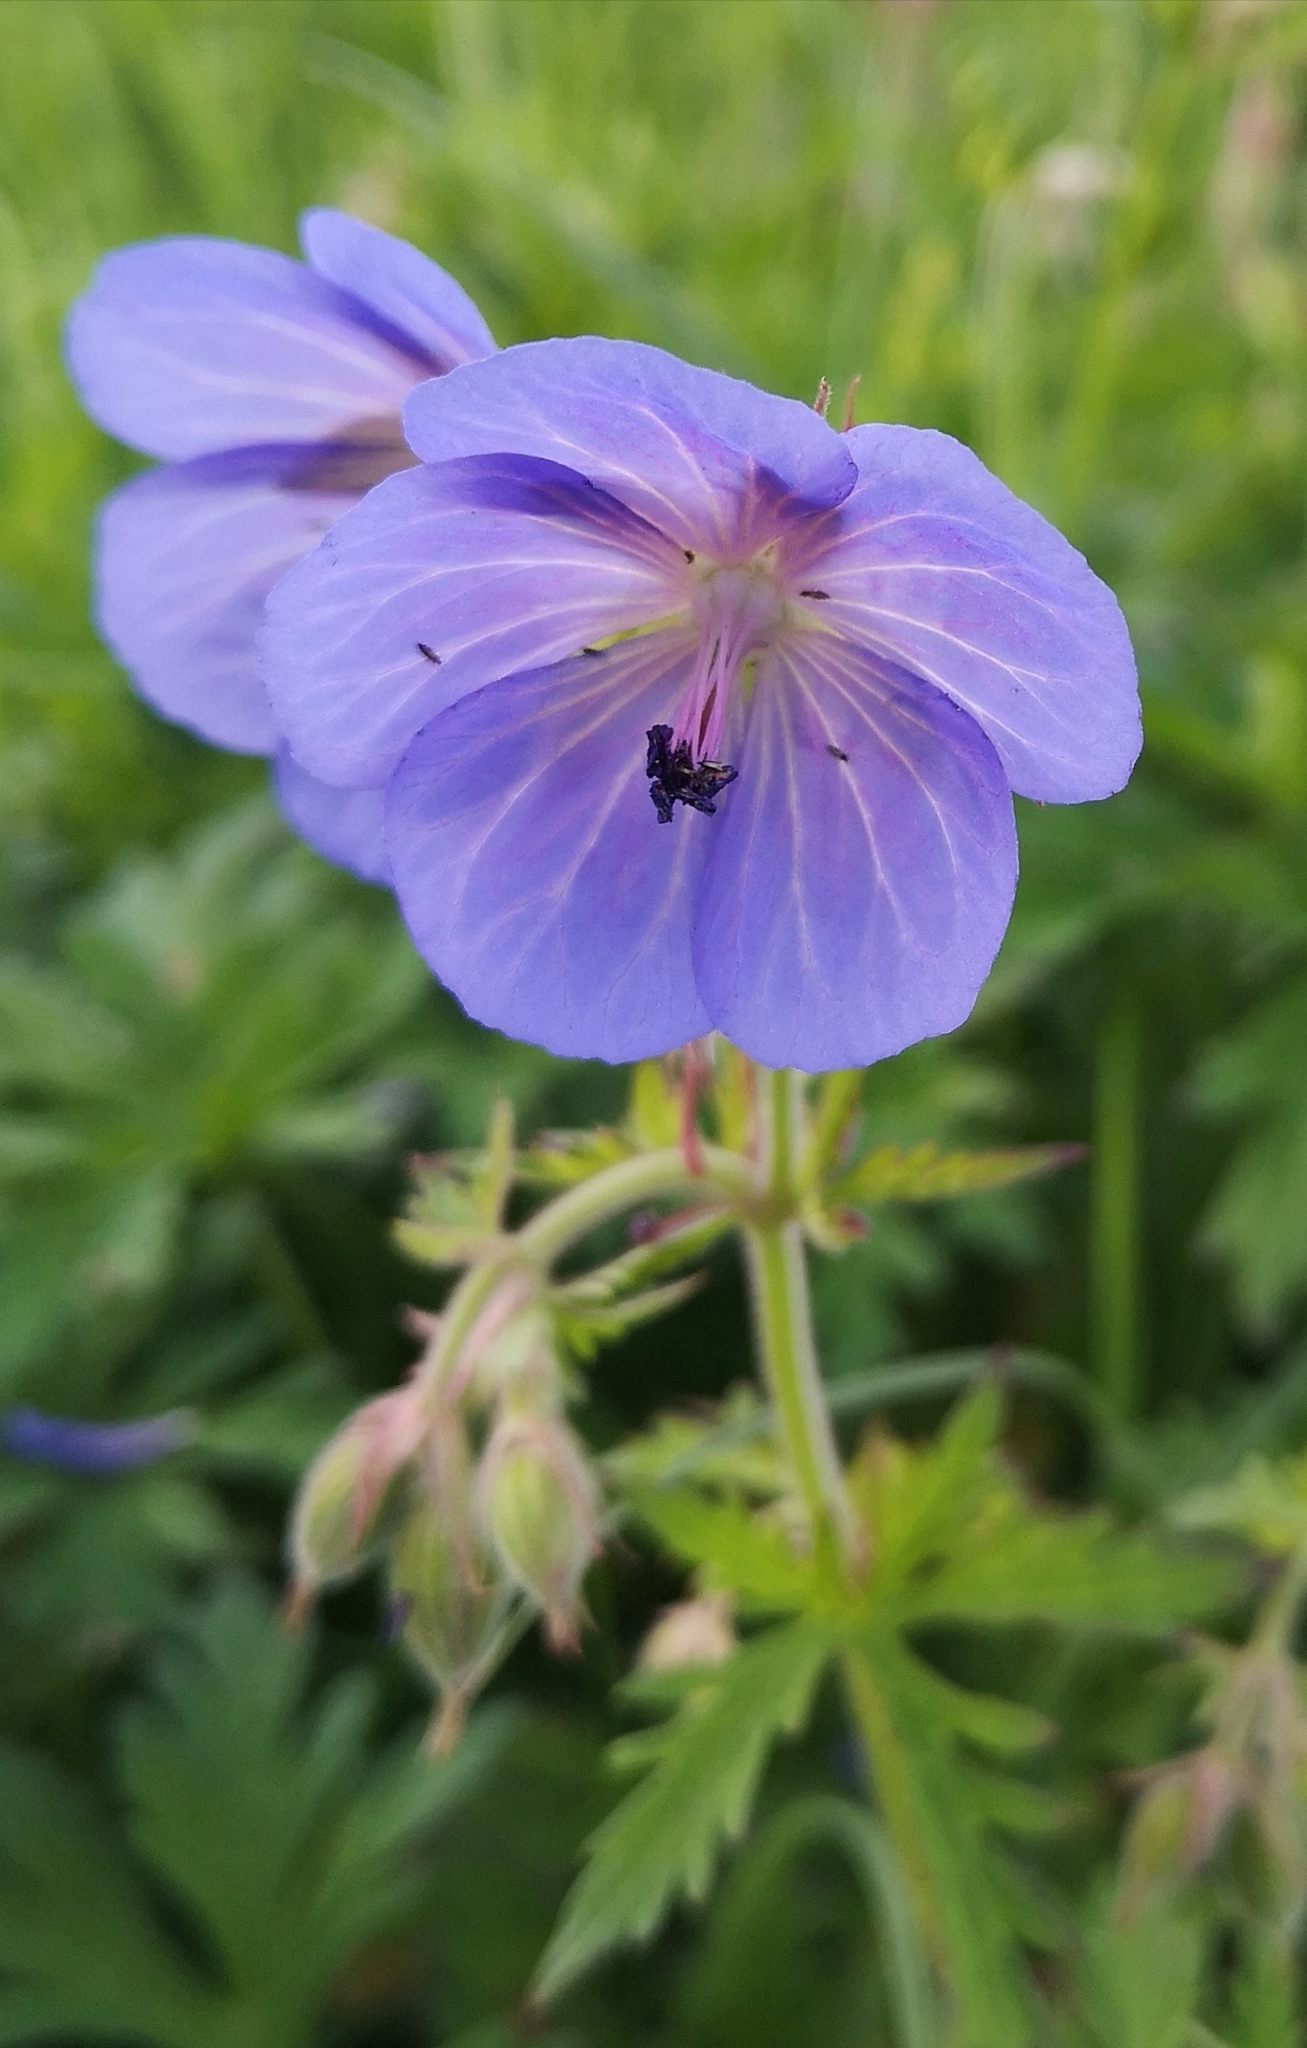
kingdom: Plantae
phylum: Tracheophyta
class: Magnoliopsida
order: Geraniales
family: Geraniaceae
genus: Geranium
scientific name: Geranium pratense
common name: Meadow crane's-bill
